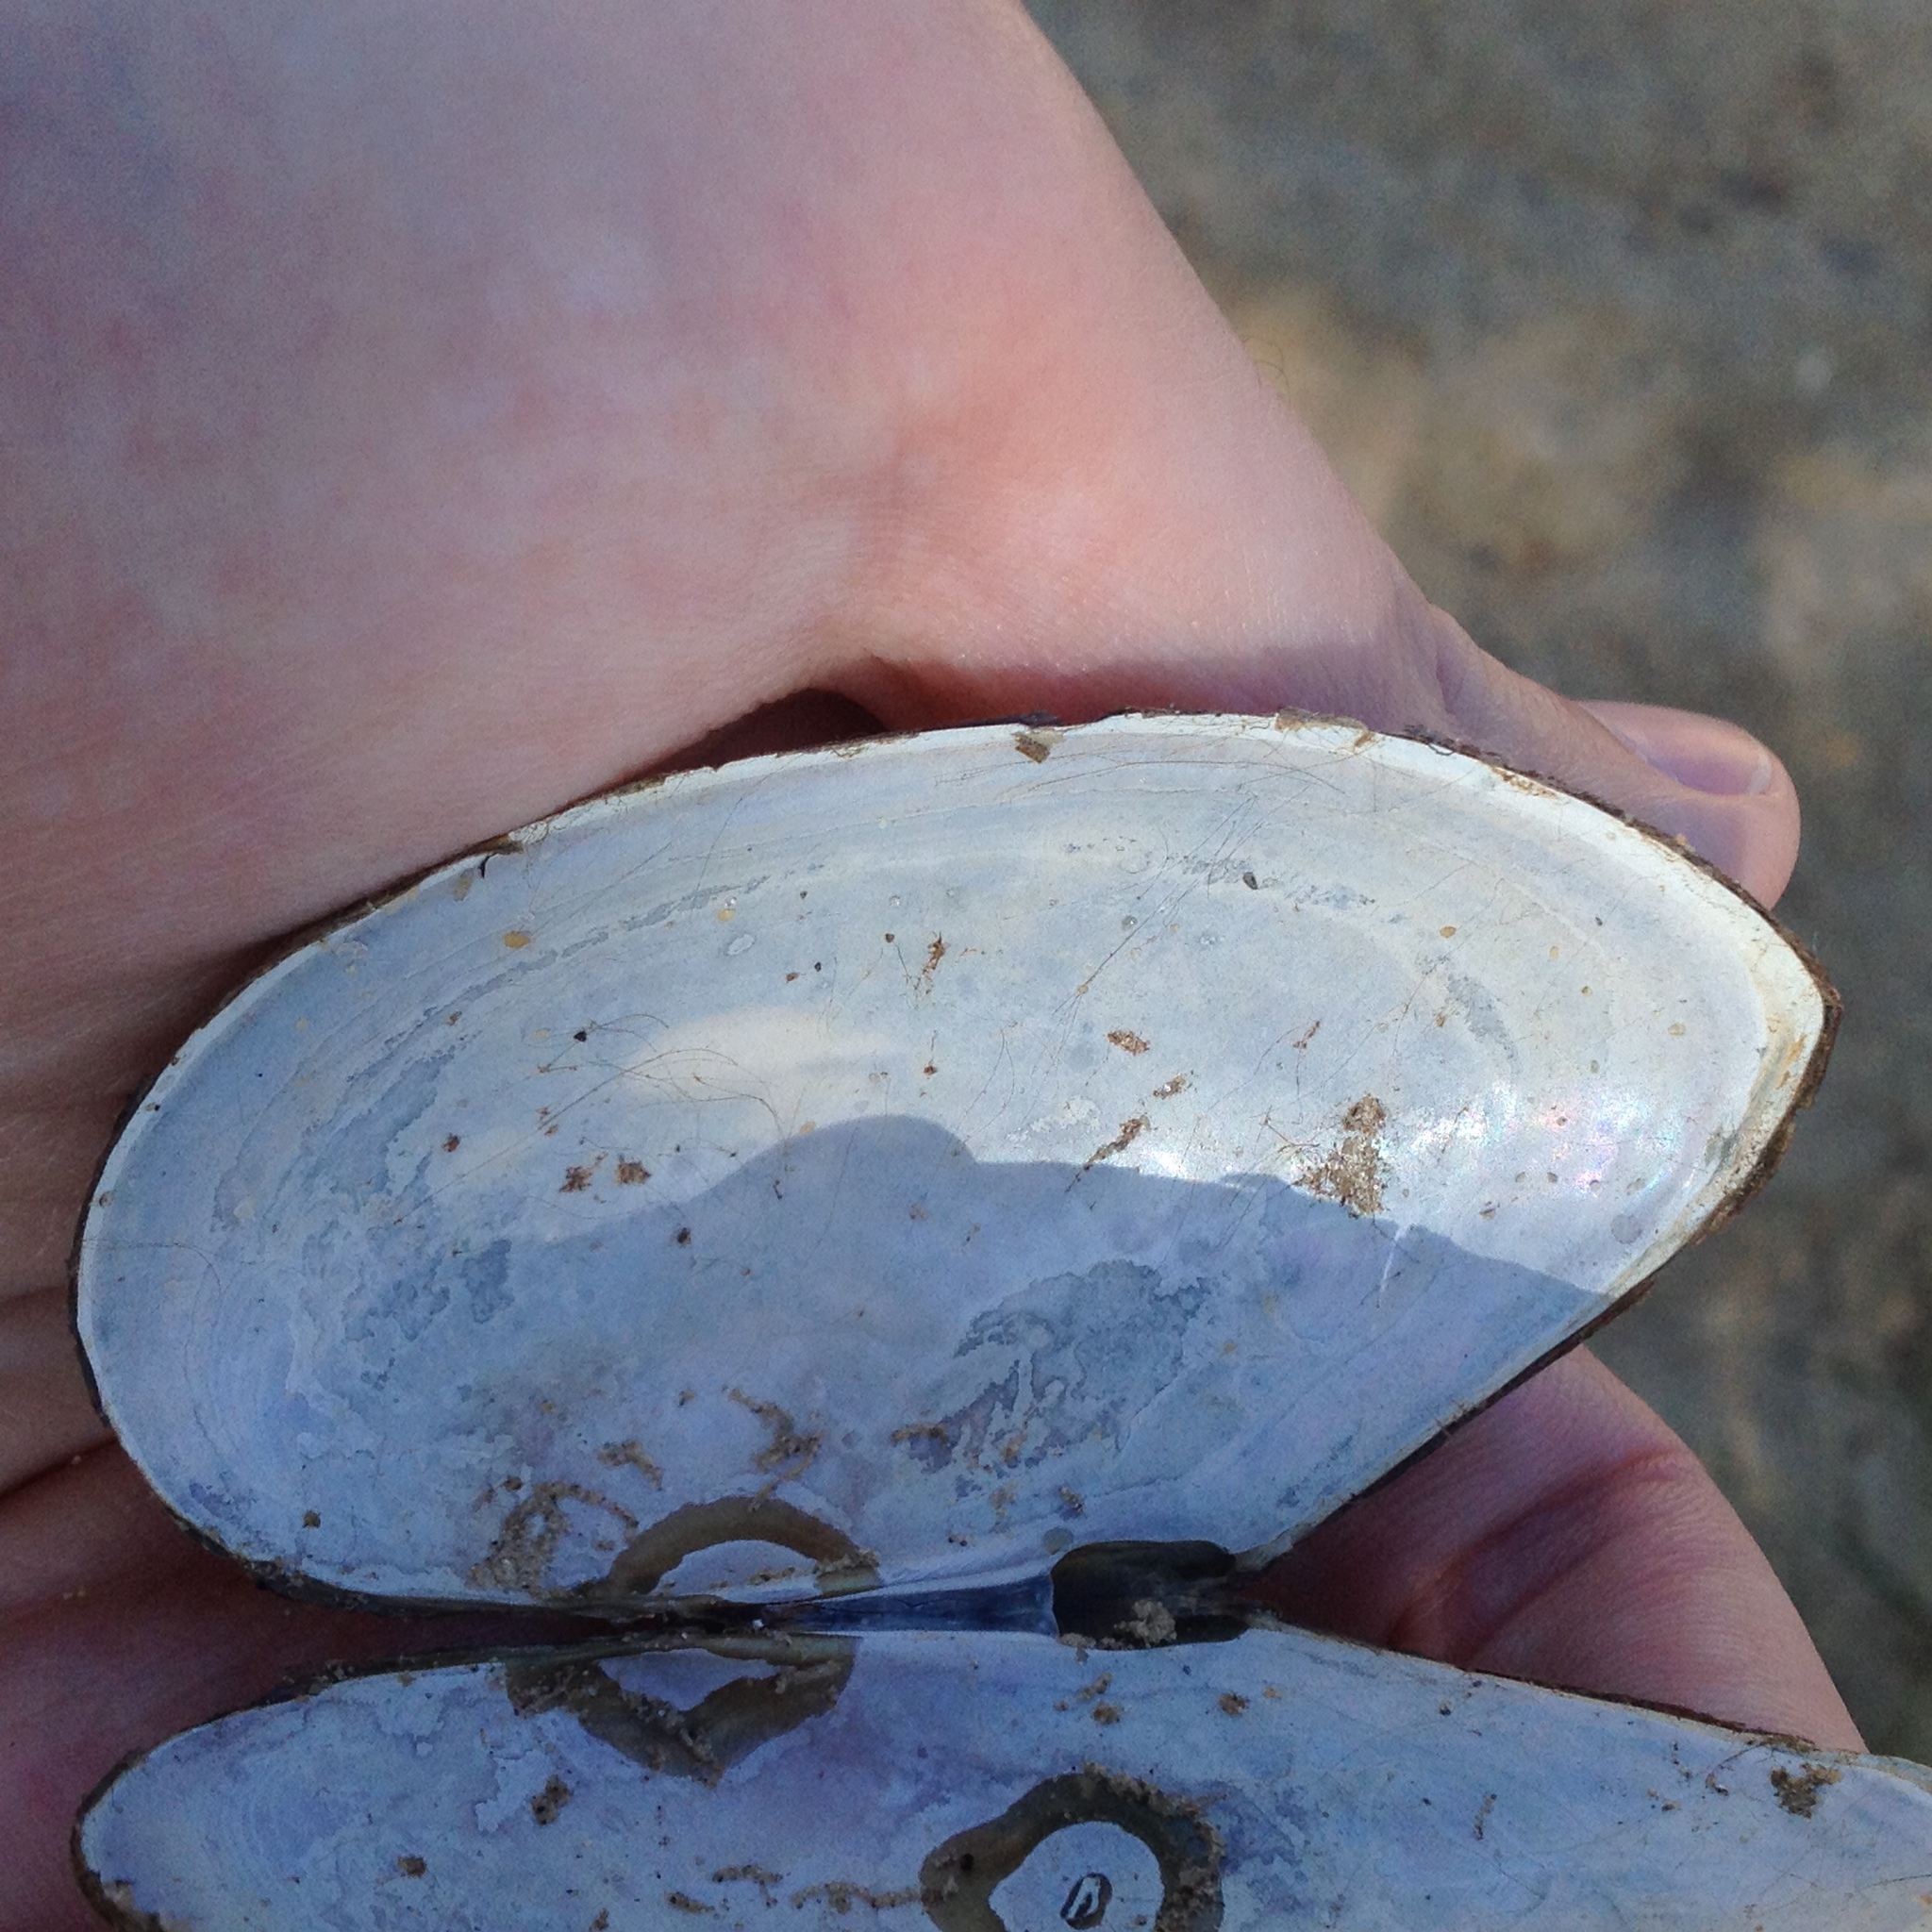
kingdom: Animalia
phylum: Mollusca
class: Bivalvia
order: Unionida
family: Unionidae
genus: Pyganodon
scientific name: Pyganodon cataracta
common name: Eastern floater
